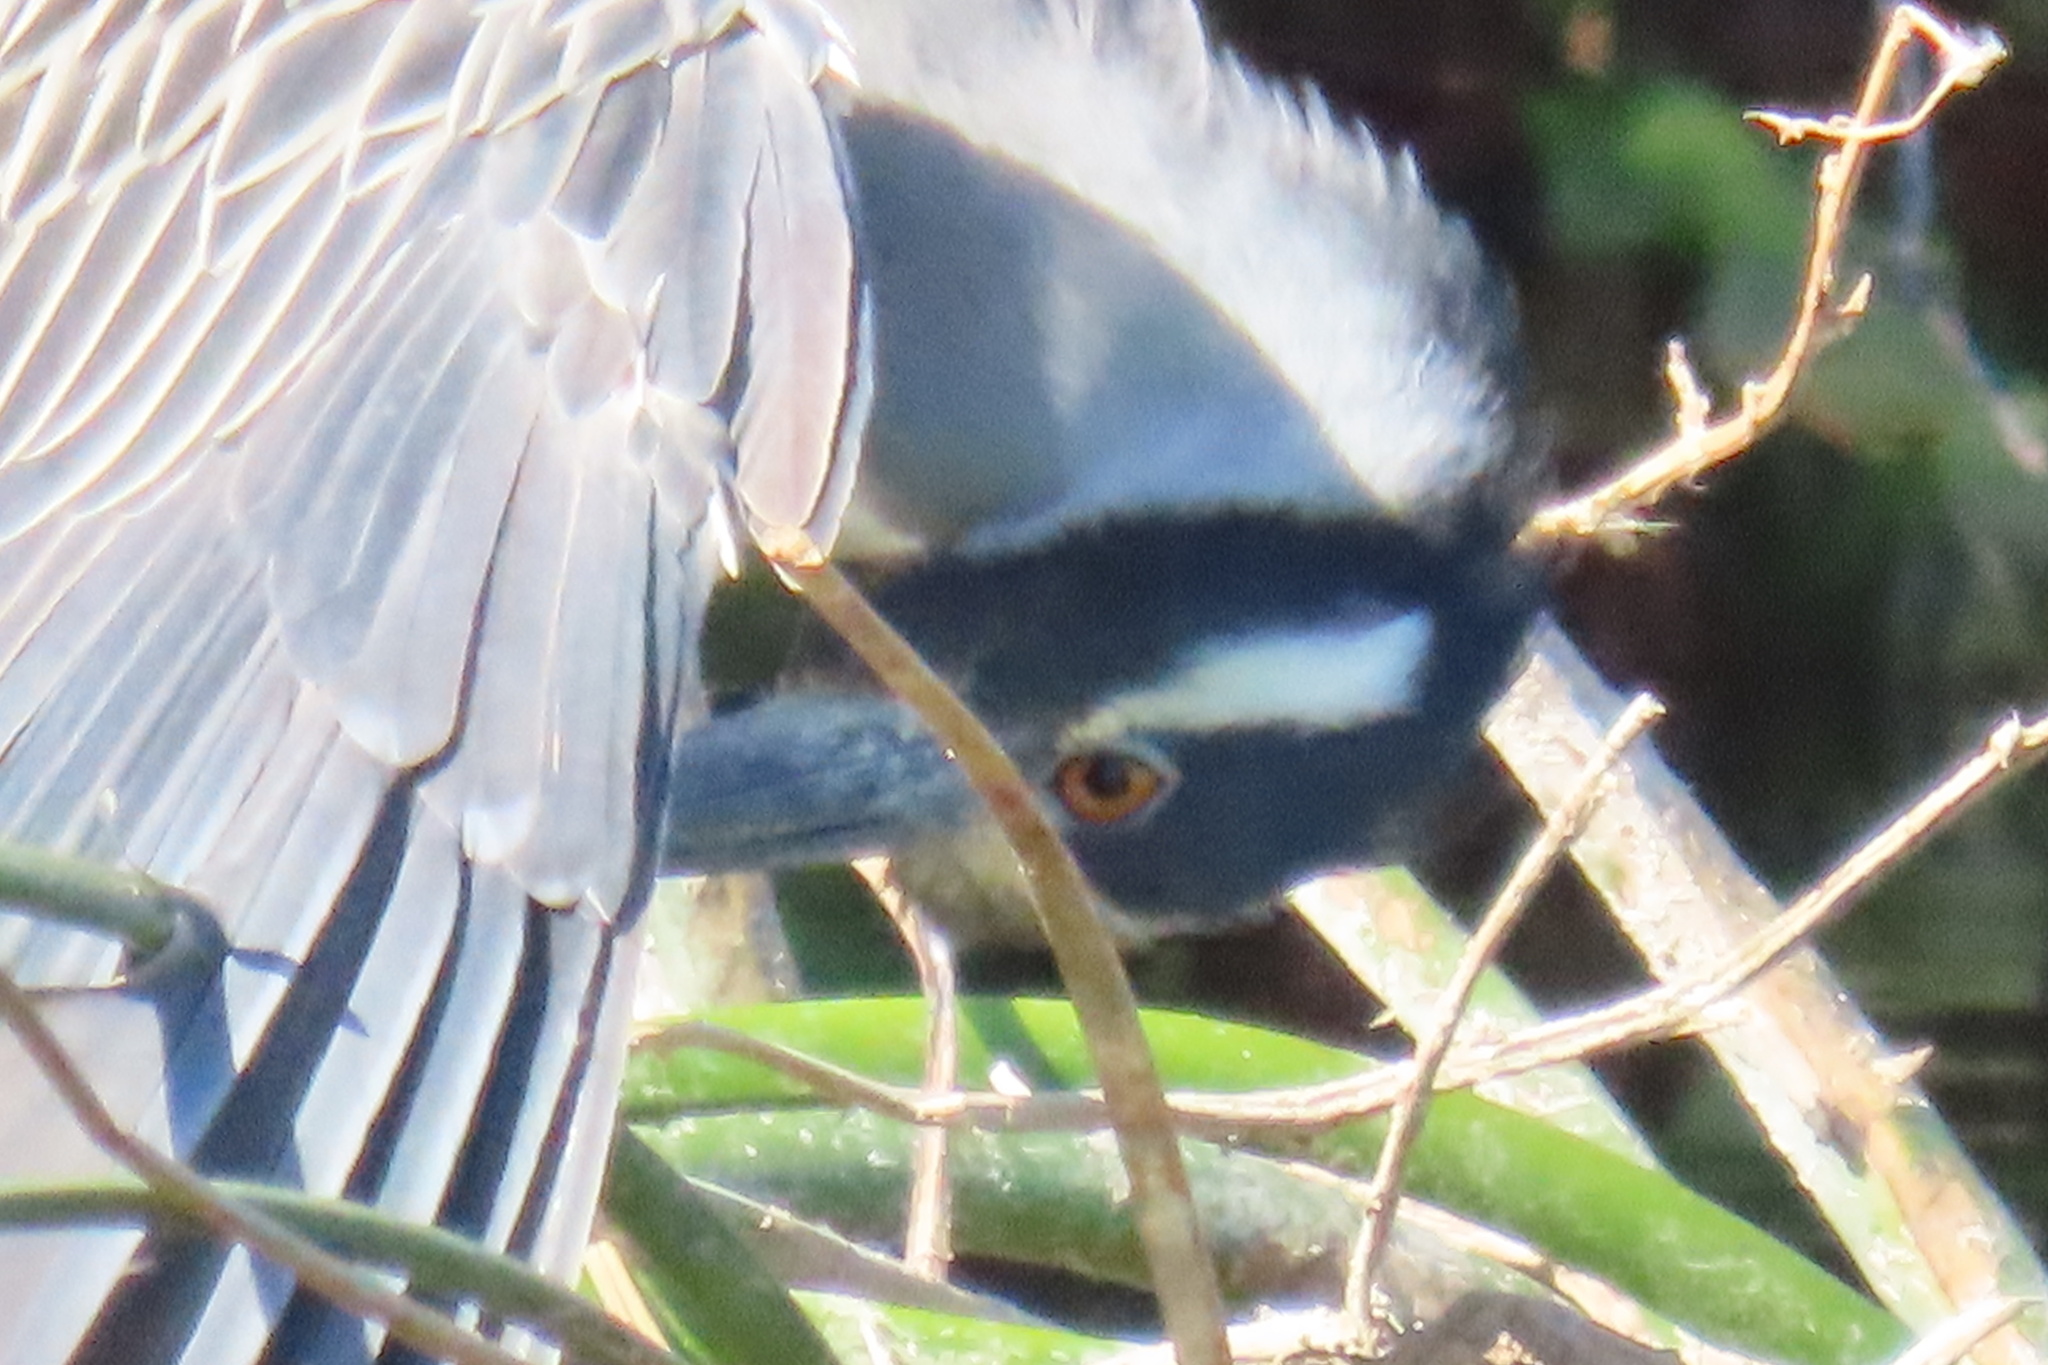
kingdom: Animalia
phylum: Chordata
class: Aves
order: Pelecaniformes
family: Ardeidae
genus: Nyctanassa
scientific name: Nyctanassa violacea
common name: Yellow-crowned night heron
